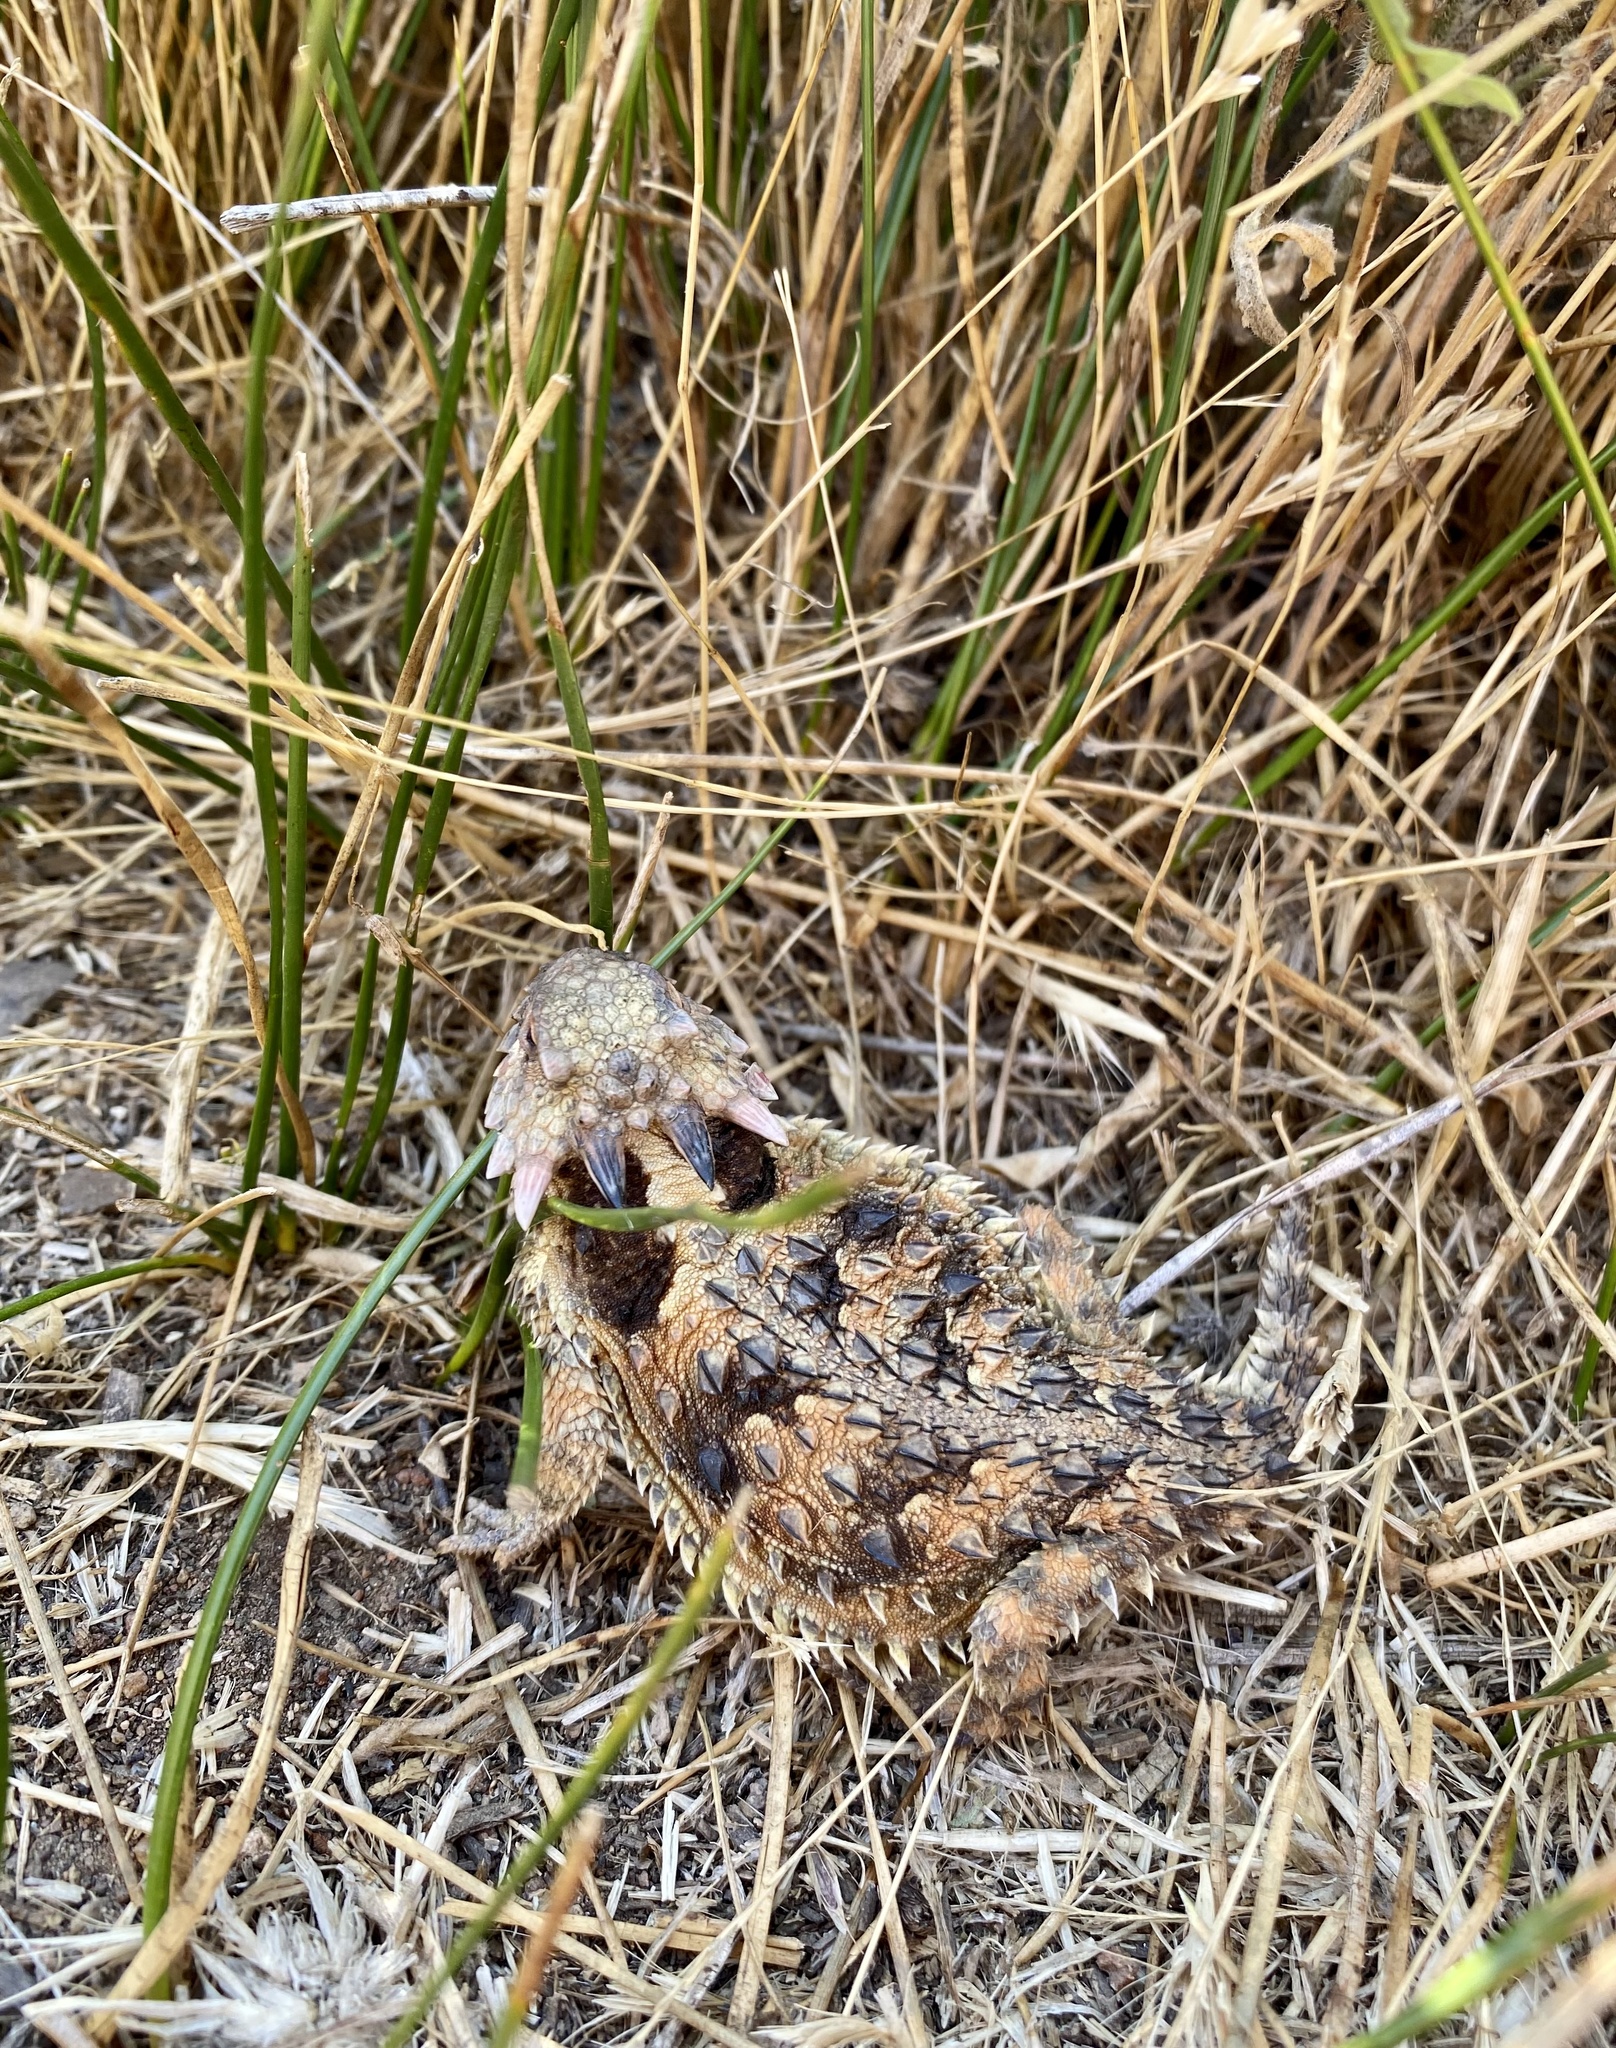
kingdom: Animalia
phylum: Chordata
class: Squamata
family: Phrynosomatidae
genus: Phrynosoma
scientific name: Phrynosoma blainvillii
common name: San diego horned lizard
